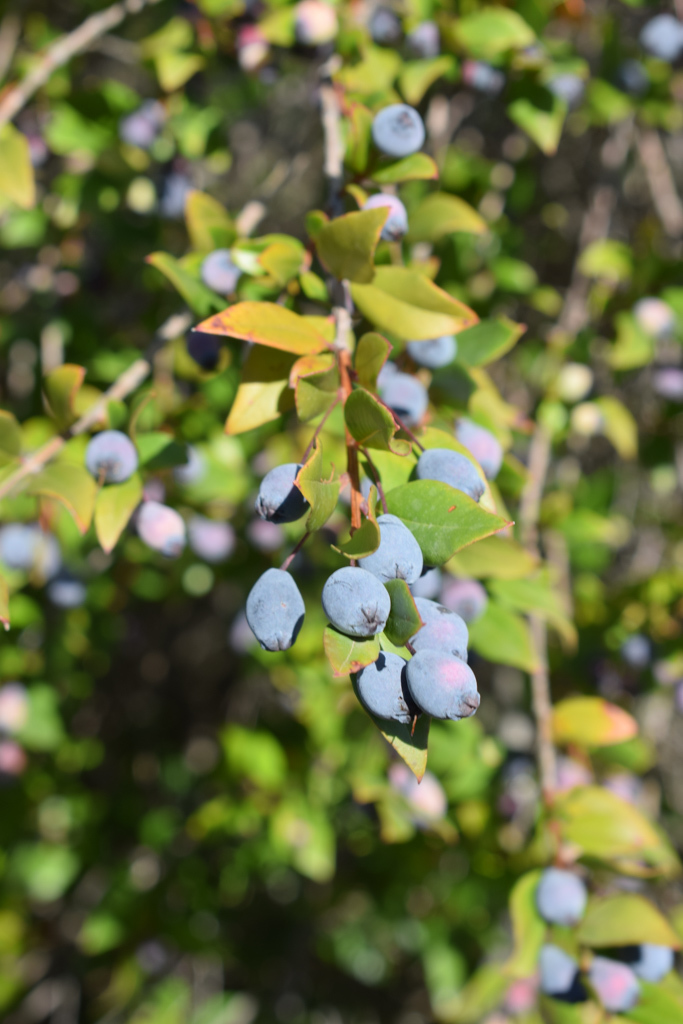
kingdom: Plantae
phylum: Tracheophyta
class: Magnoliopsida
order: Myrtales
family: Myrtaceae
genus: Myrtus
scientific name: Myrtus communis
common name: Myrtle
